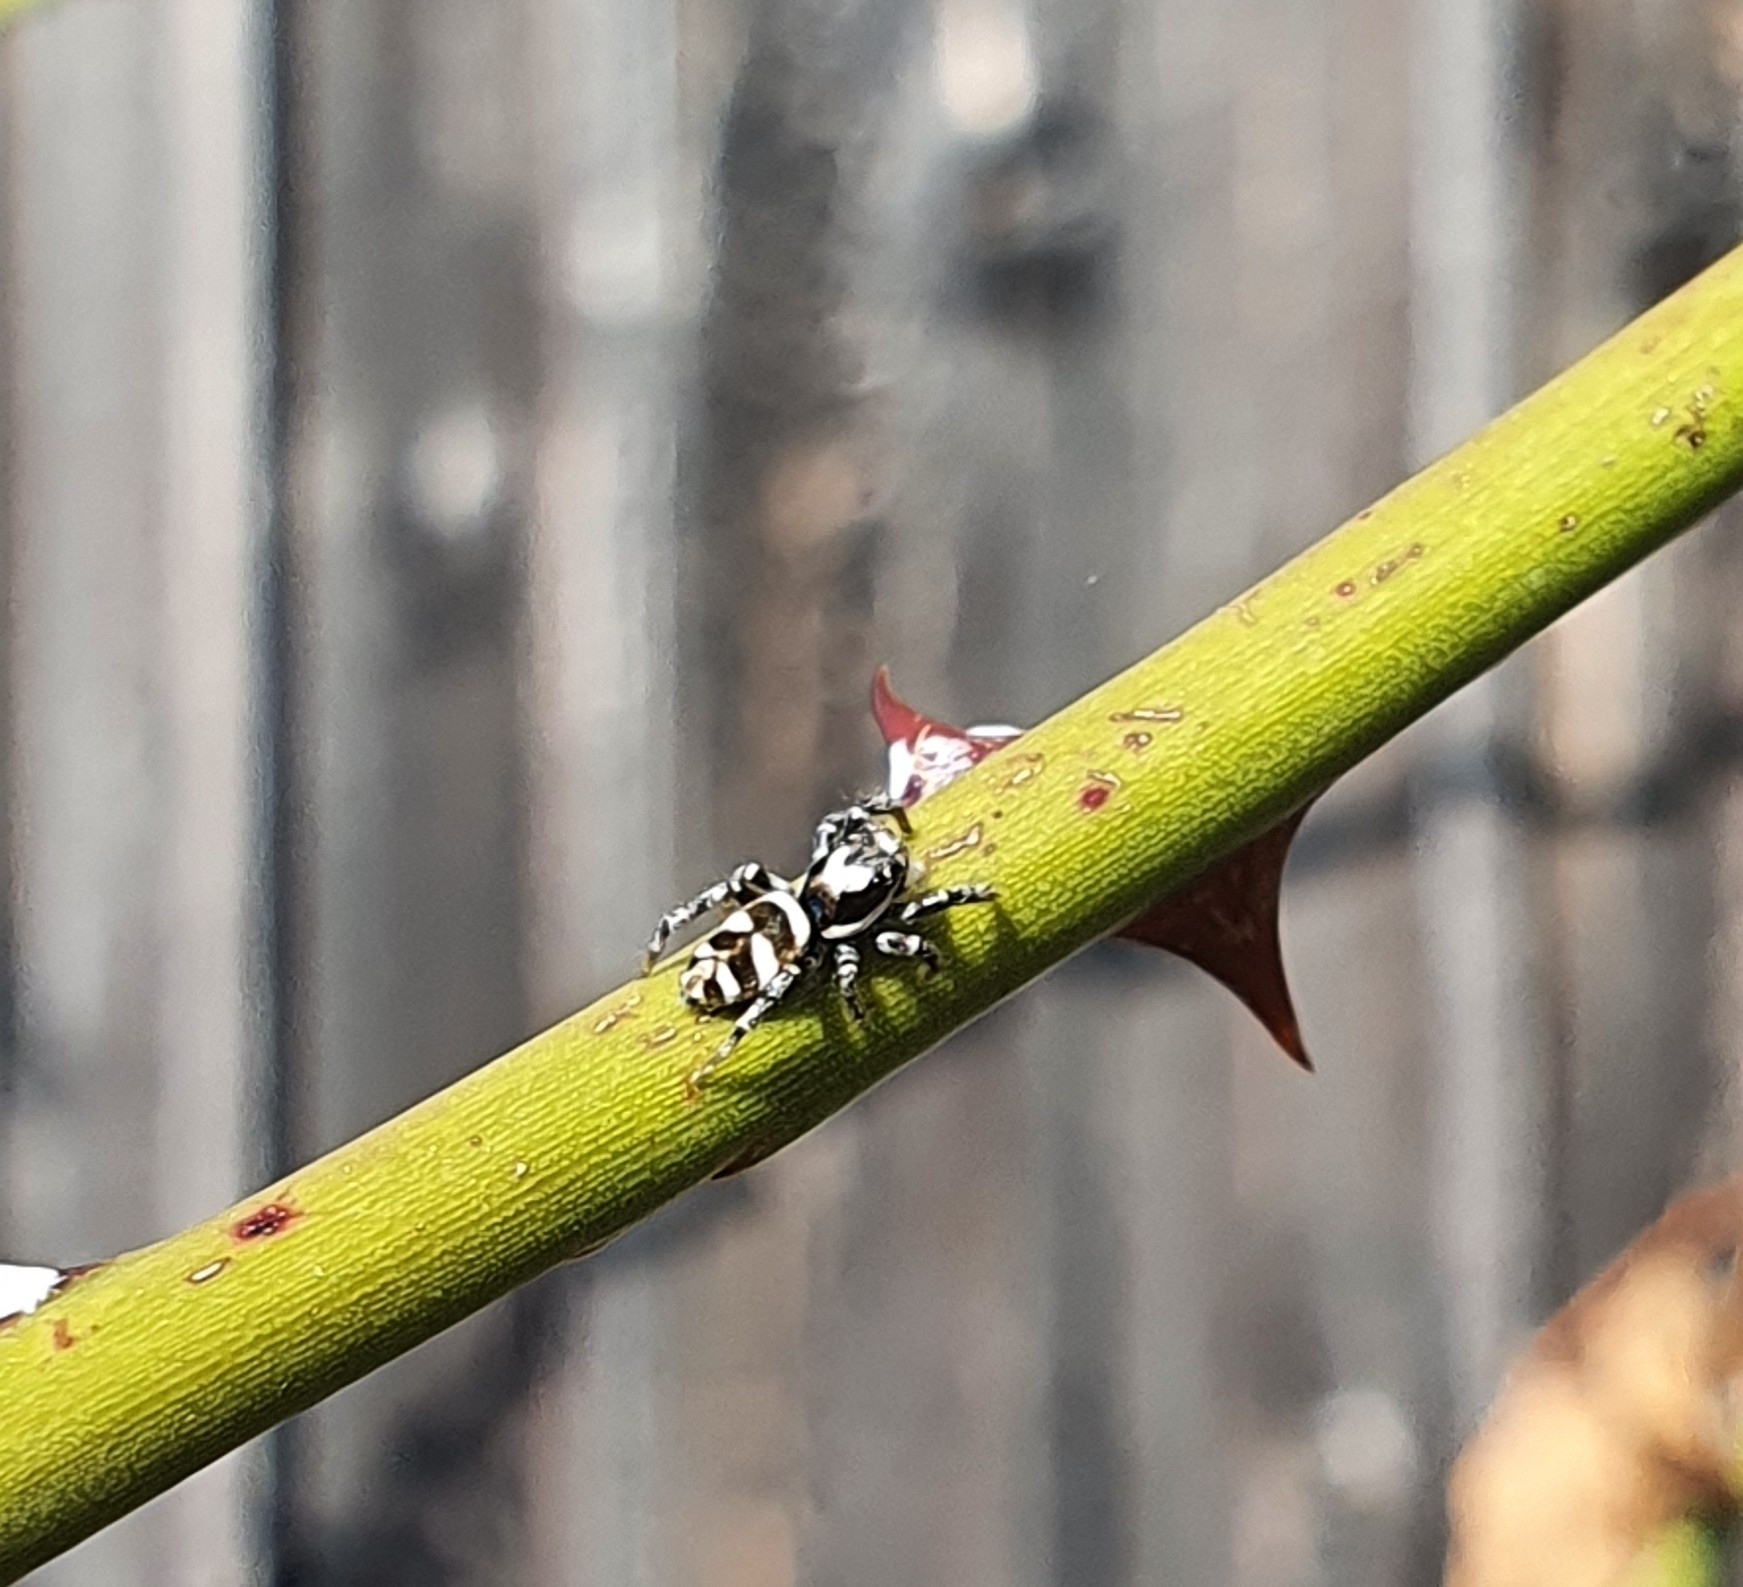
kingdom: Animalia
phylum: Arthropoda
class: Arachnida
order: Araneae
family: Salticidae
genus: Salticus
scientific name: Salticus scenicus
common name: Zebra jumper
